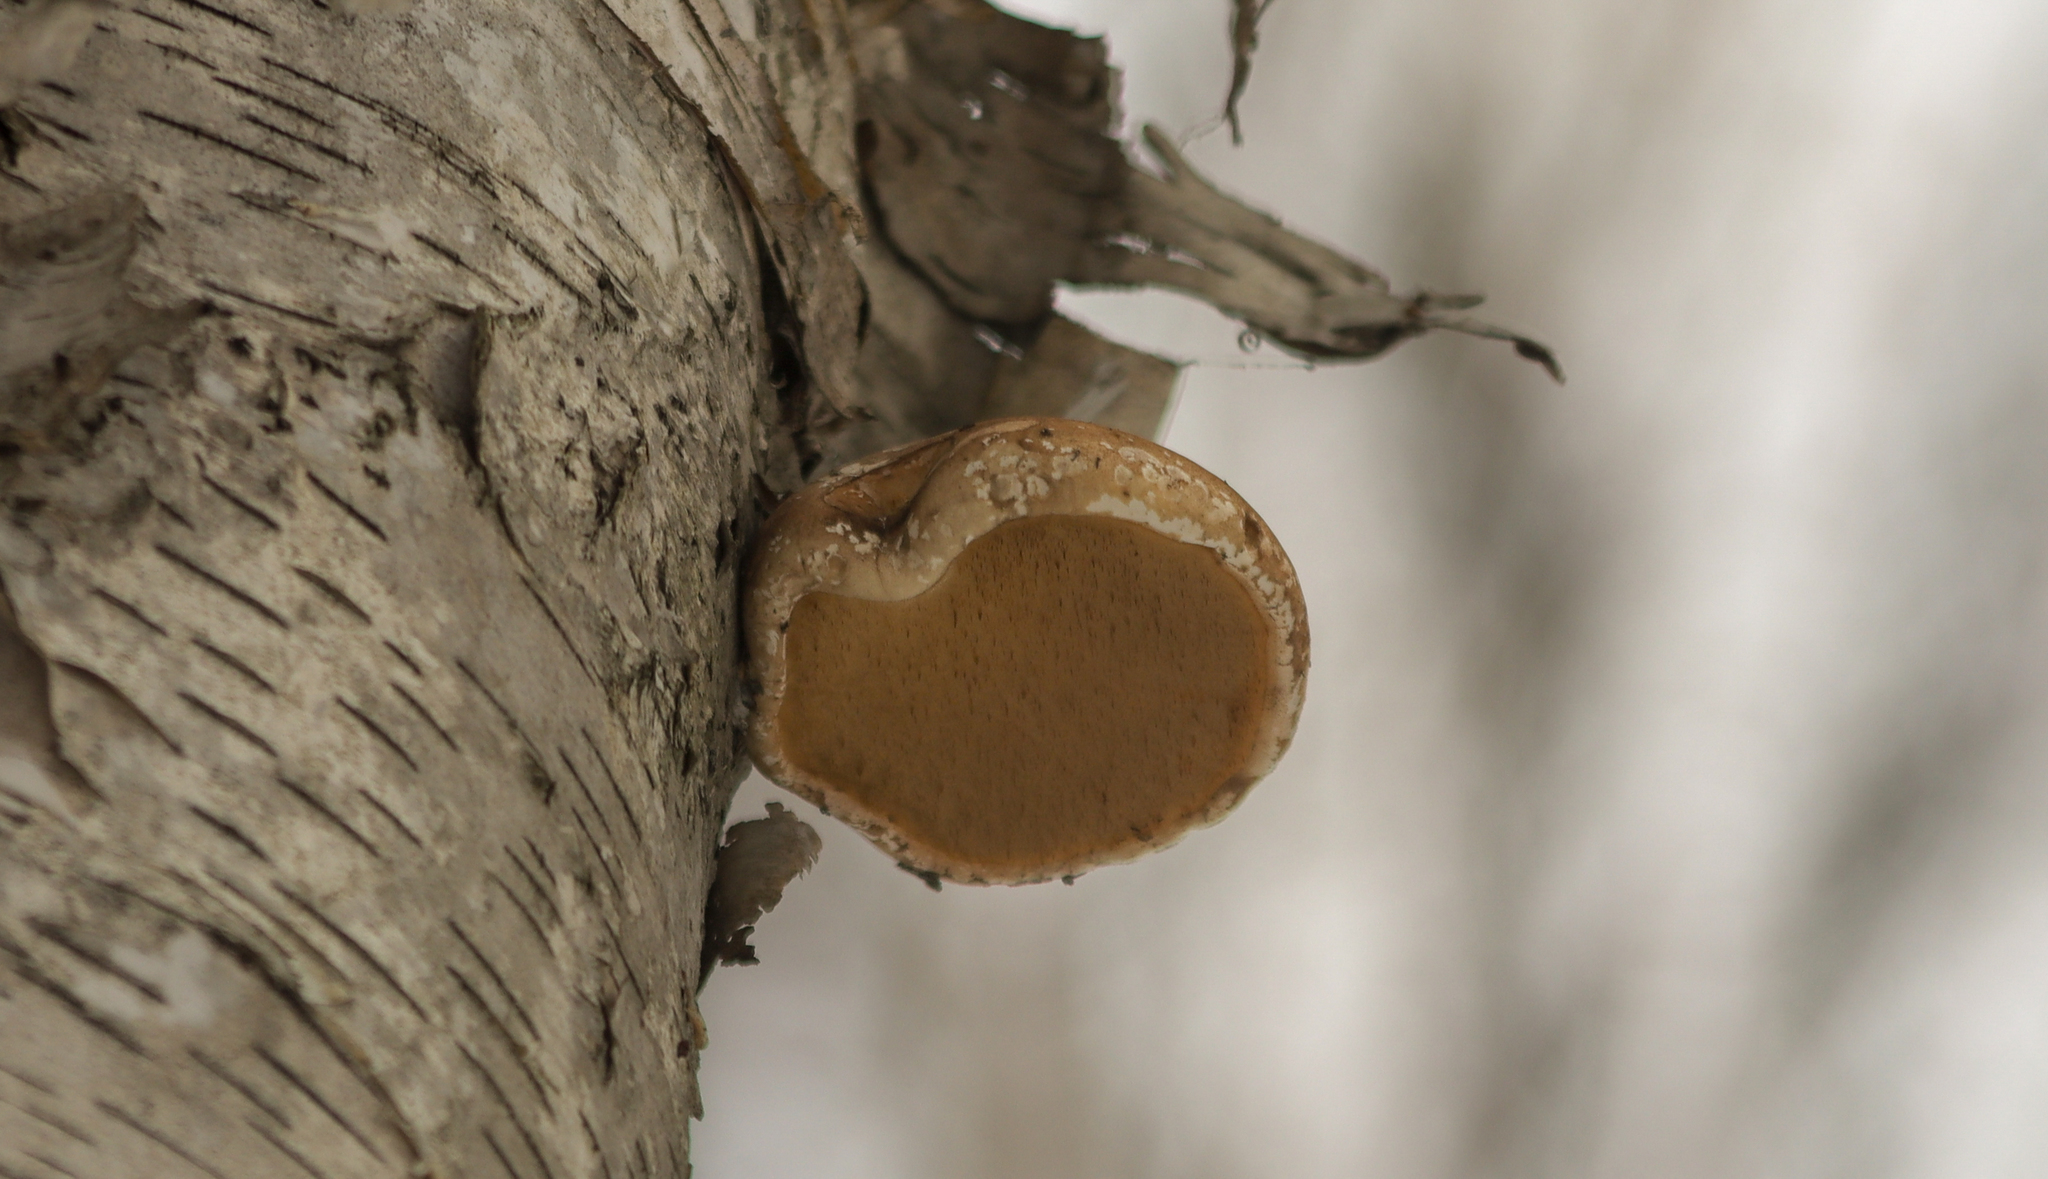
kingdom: Fungi
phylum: Basidiomycota
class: Agaricomycetes
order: Polyporales
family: Fomitopsidaceae
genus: Fomitopsis
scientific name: Fomitopsis betulina
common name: Birch polypore
